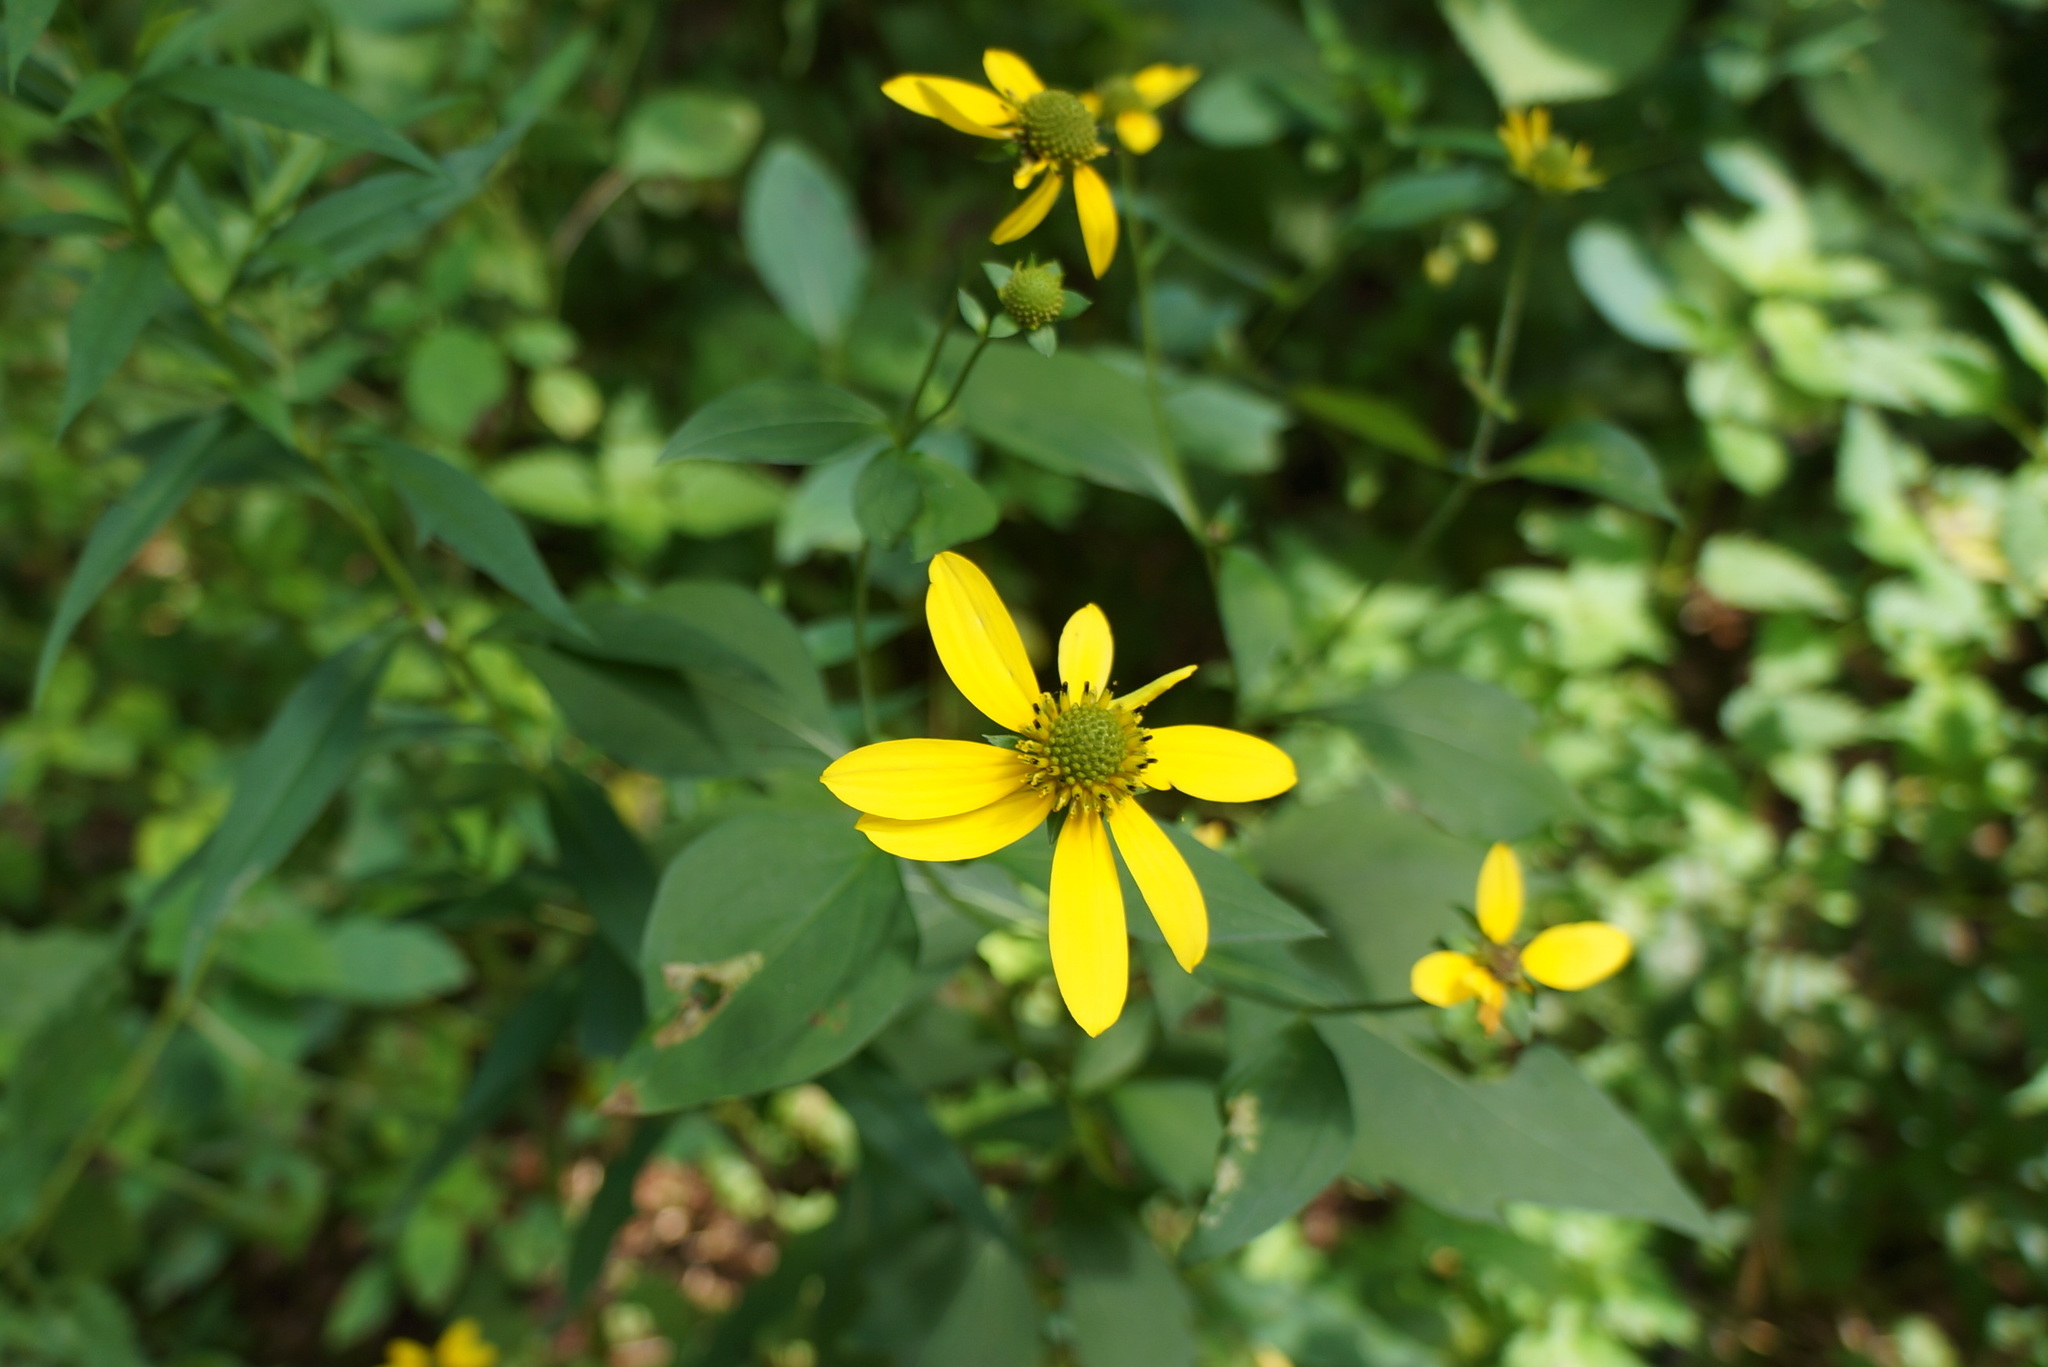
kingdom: Plantae
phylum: Tracheophyta
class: Magnoliopsida
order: Asterales
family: Asteraceae
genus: Rudbeckia
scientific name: Rudbeckia laciniata
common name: Coneflower
